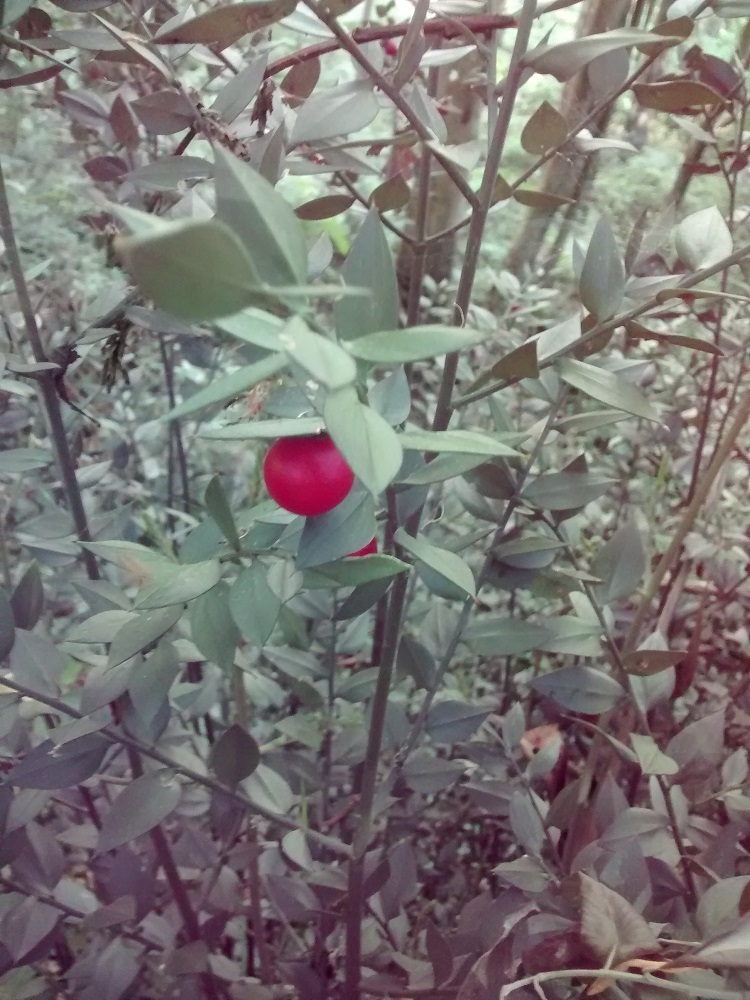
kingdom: Plantae
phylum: Tracheophyta
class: Liliopsida
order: Asparagales
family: Asparagaceae
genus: Ruscus
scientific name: Ruscus aculeatus
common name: Butcher's-broom
